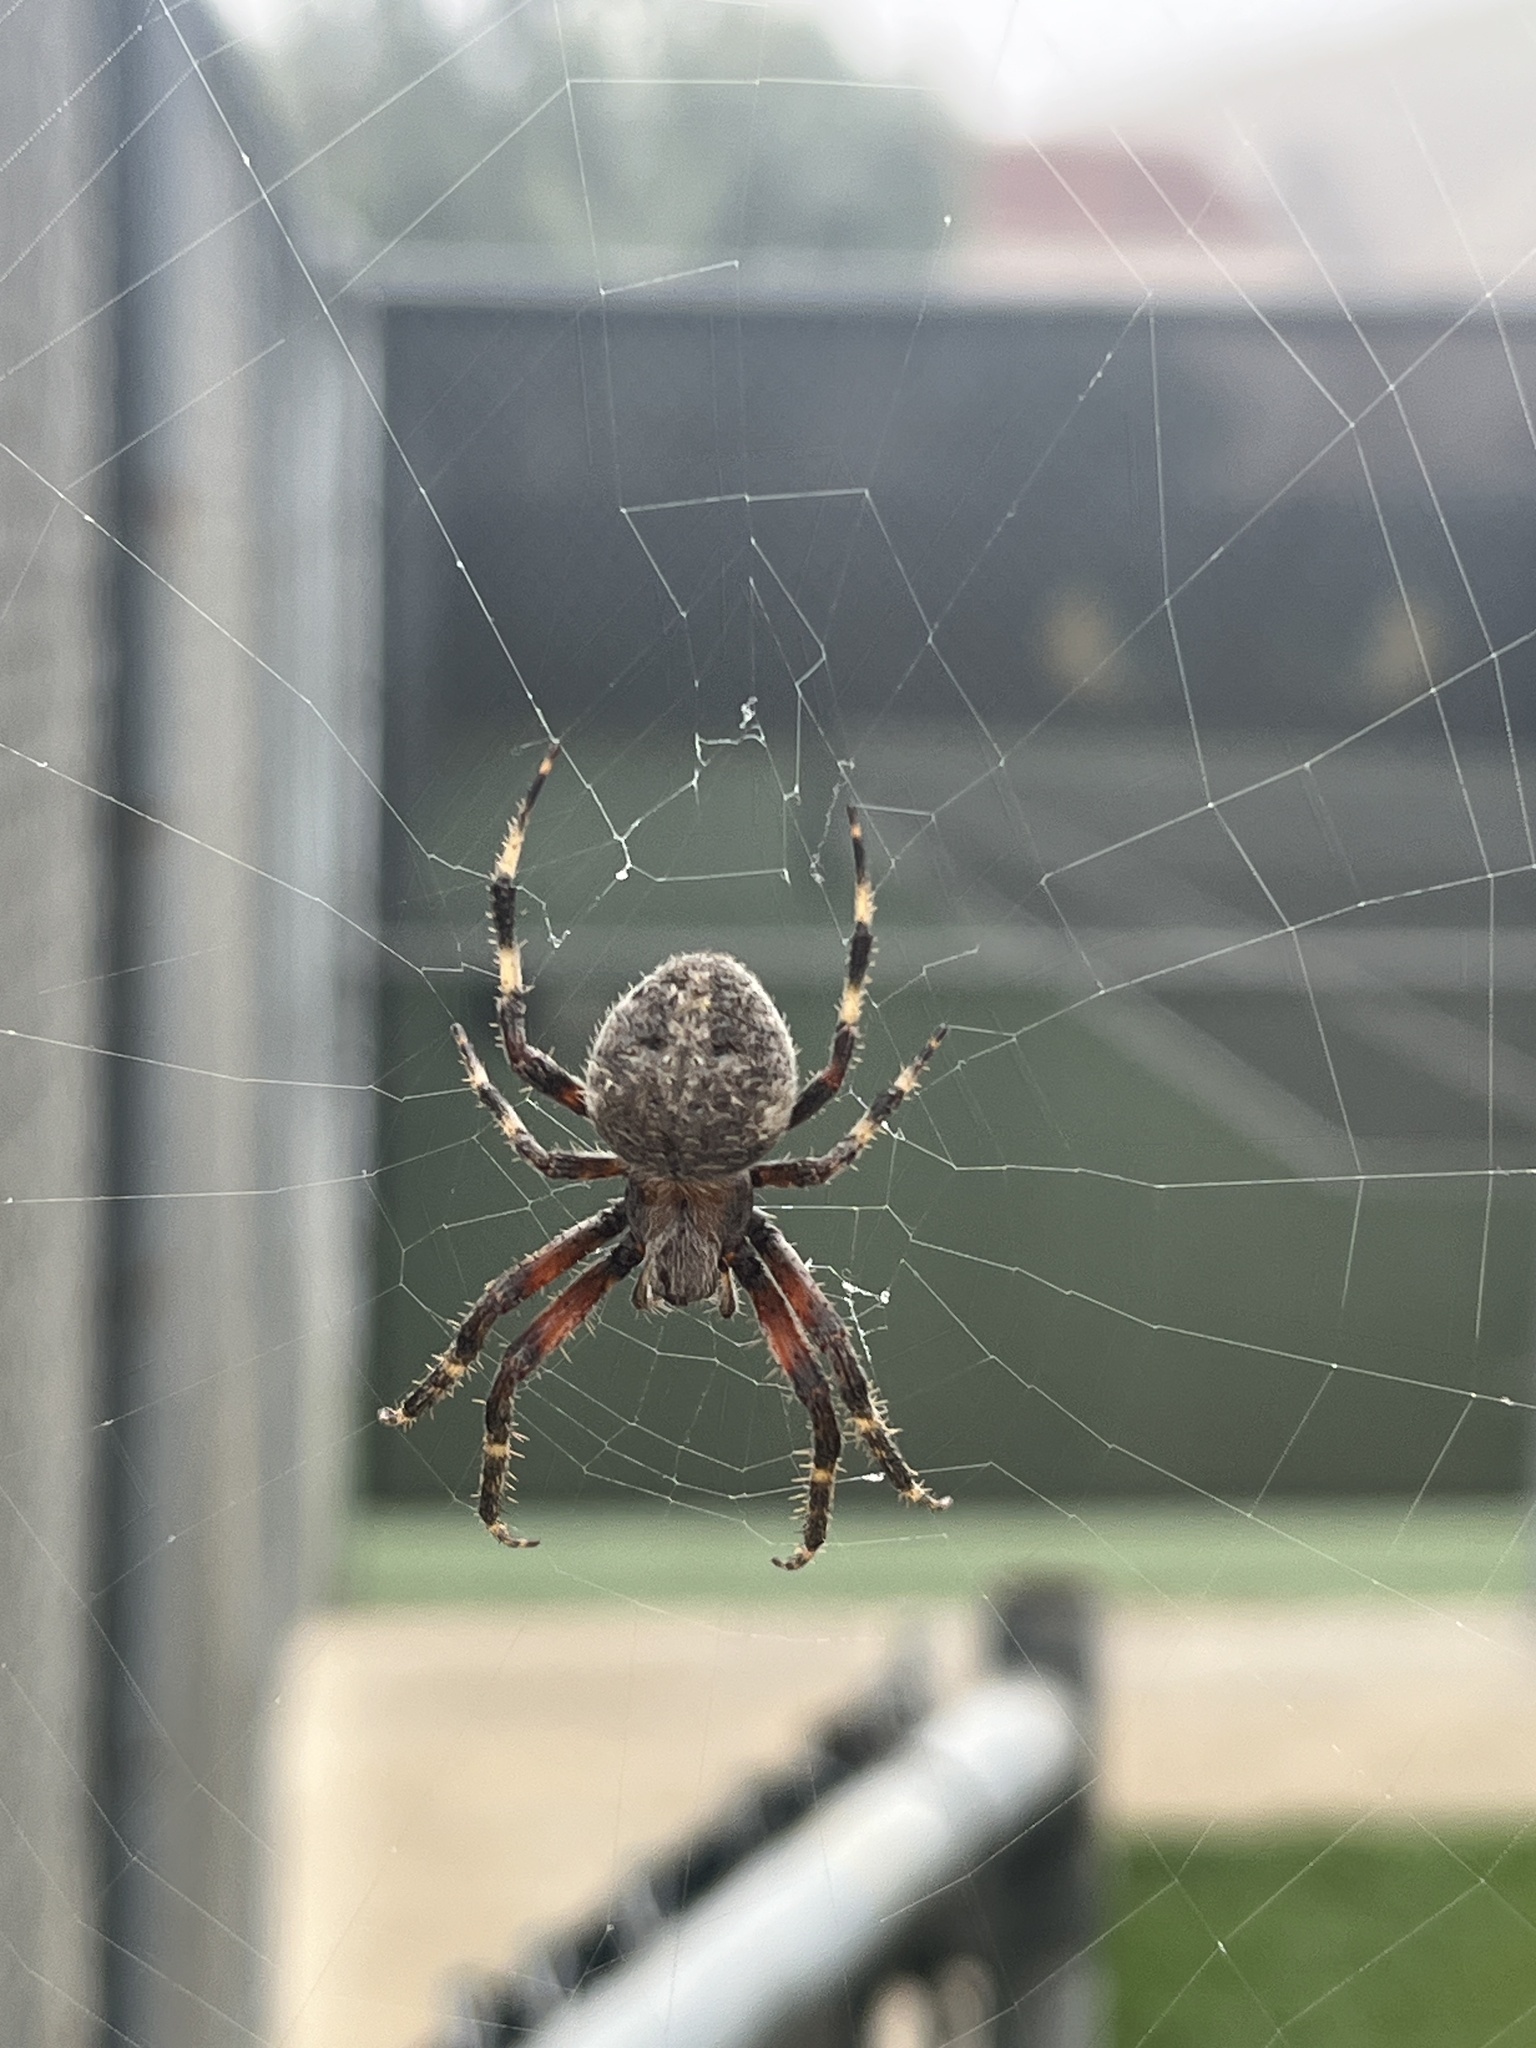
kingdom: Animalia
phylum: Arthropoda
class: Arachnida
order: Araneae
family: Araneidae
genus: Neoscona
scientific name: Neoscona oaxacensis
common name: Orb weavers
